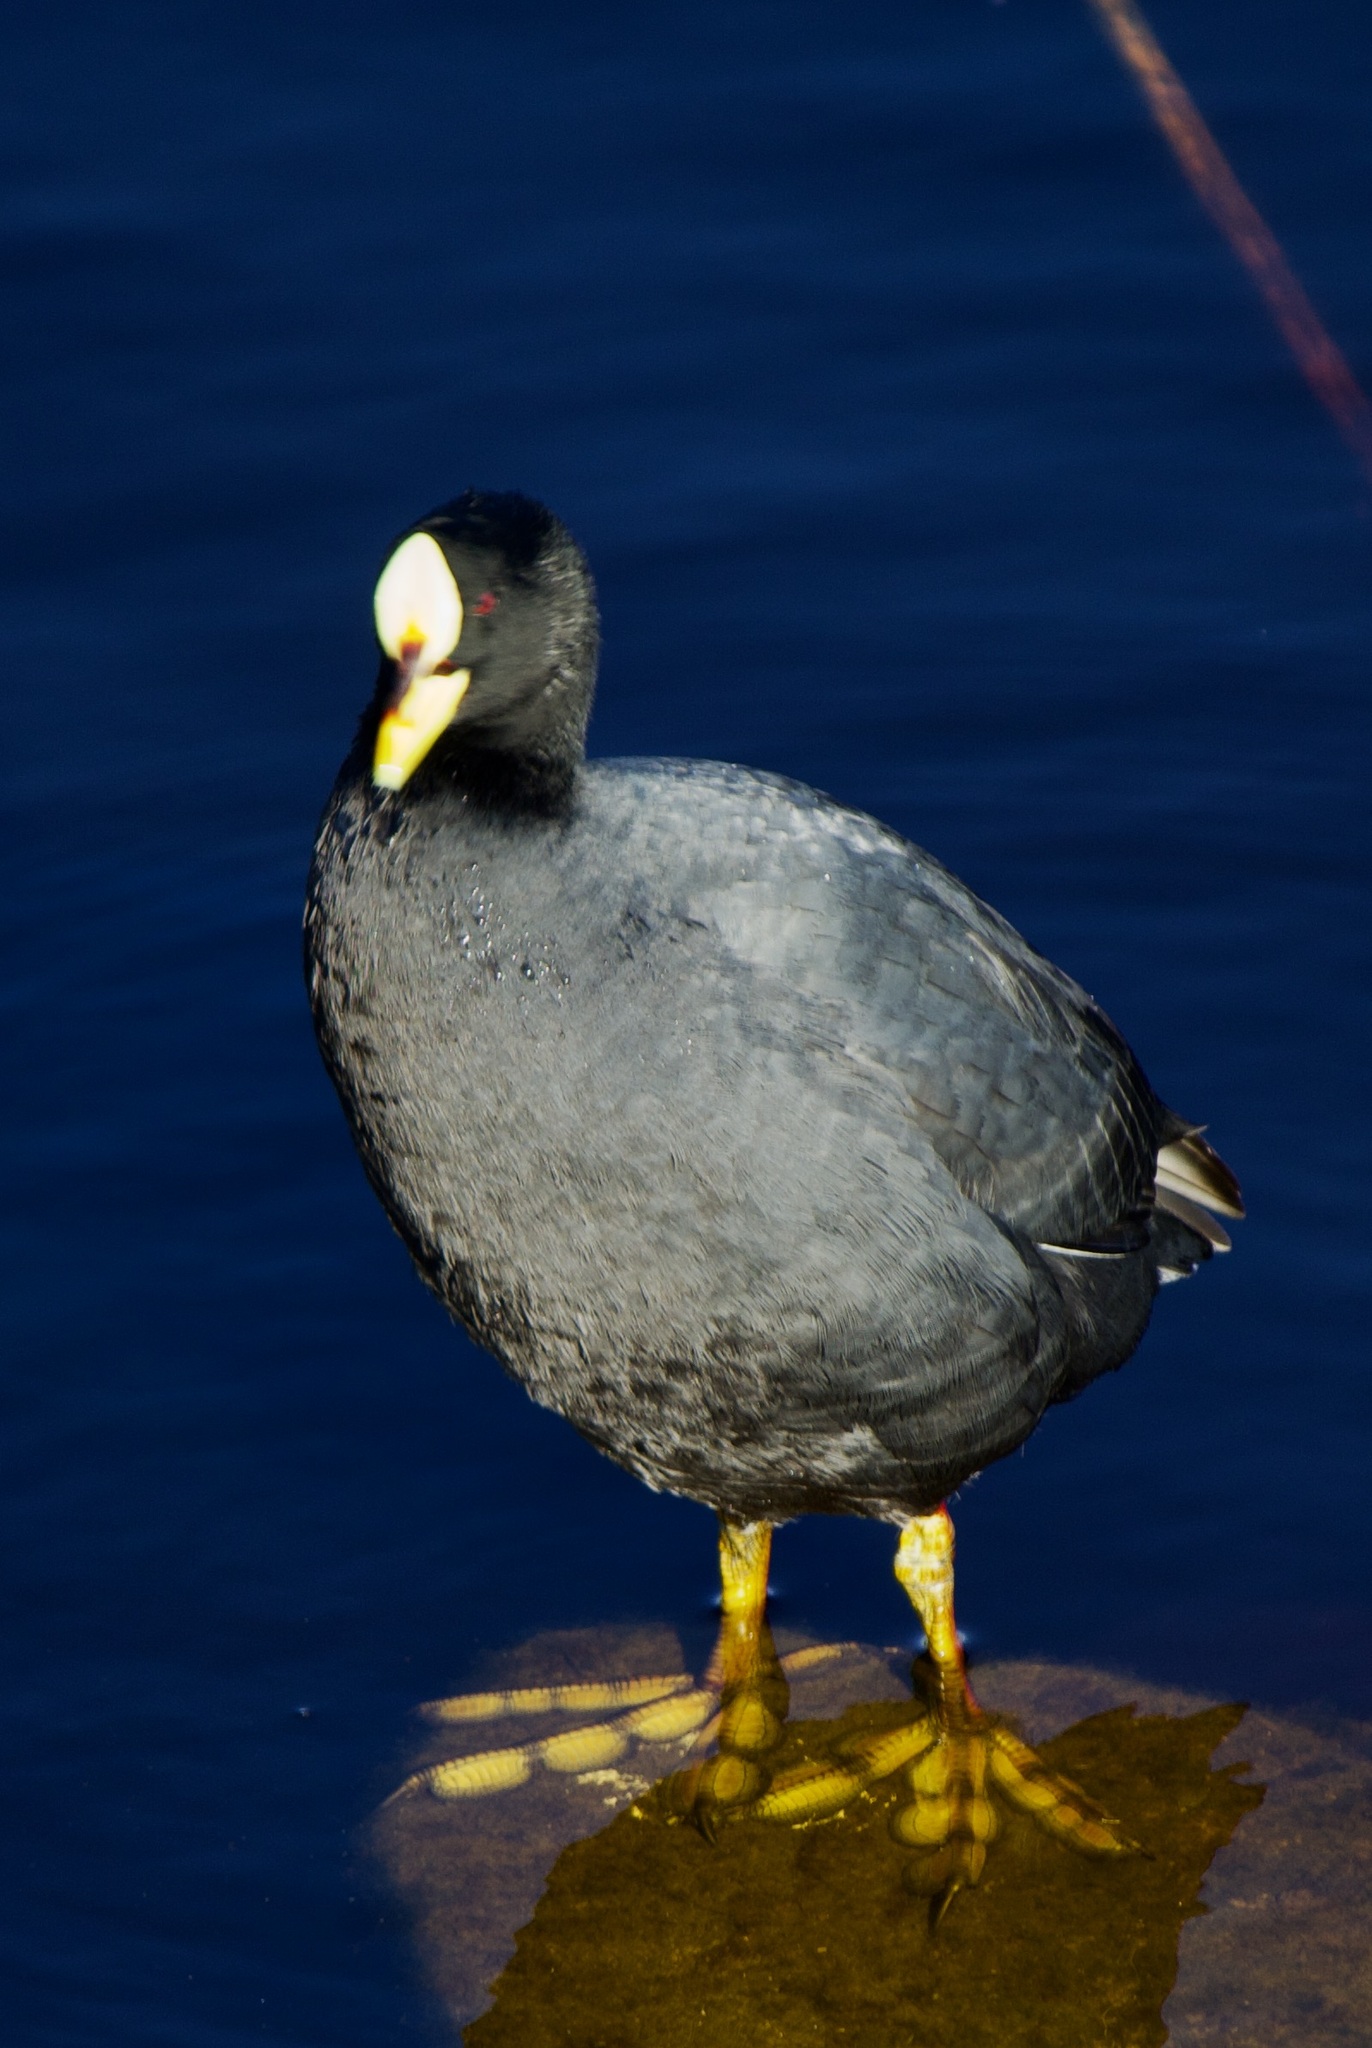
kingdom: Animalia
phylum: Chordata
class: Aves
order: Gruiformes
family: Rallidae
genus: Fulica
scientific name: Fulica armillata
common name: Red-gartered coot
